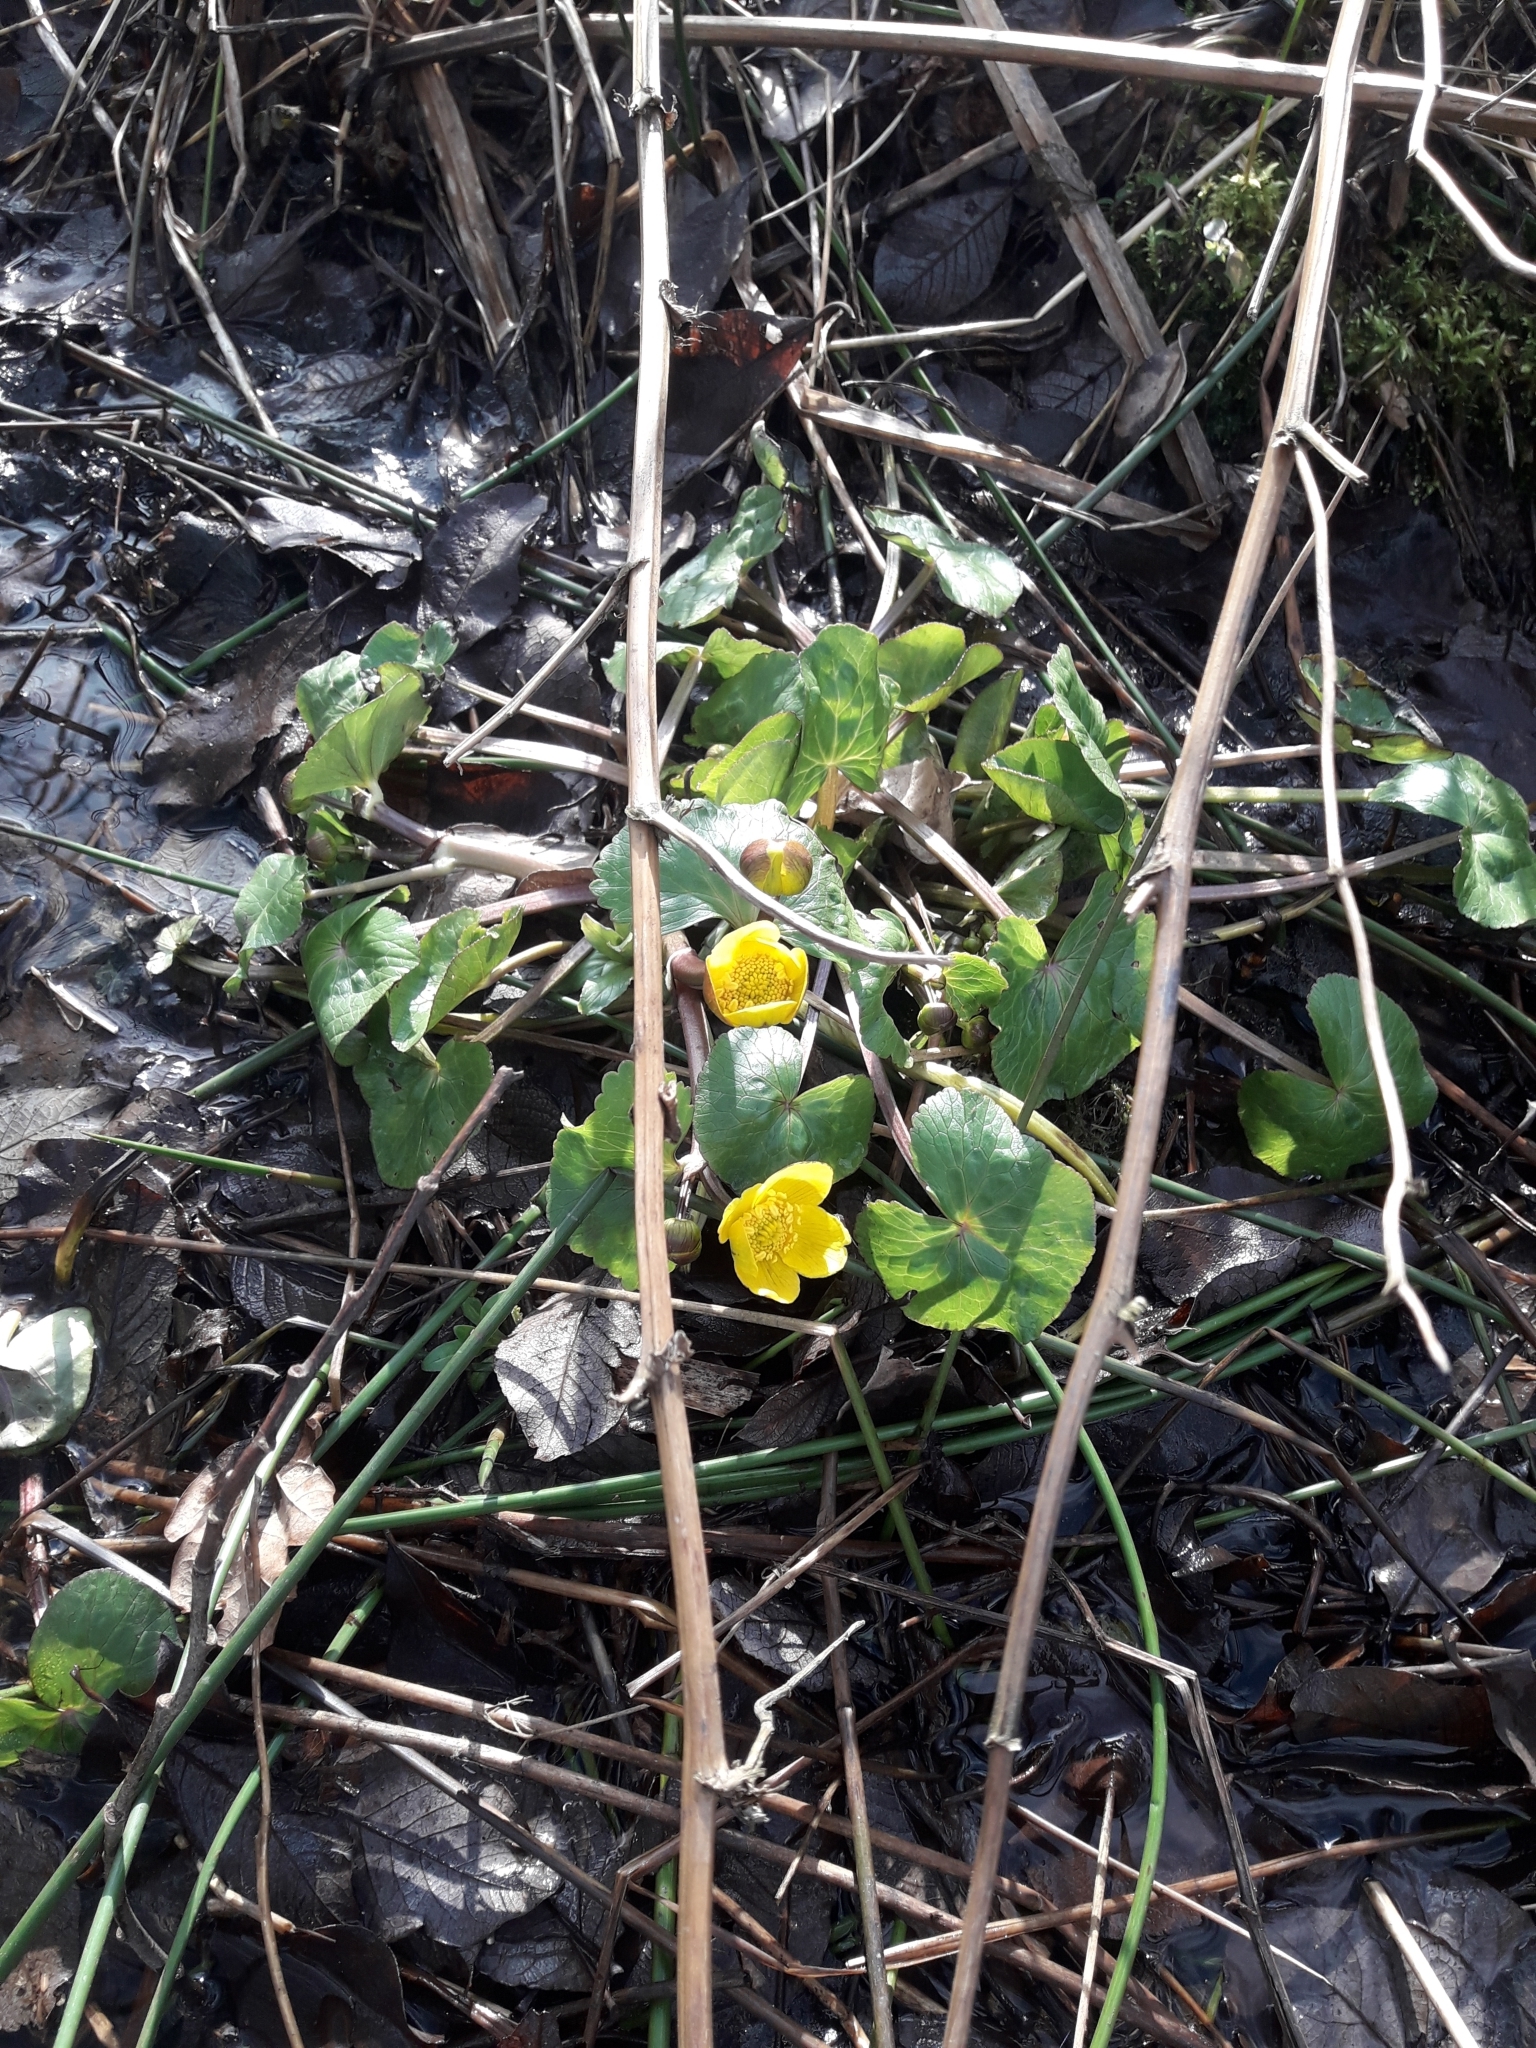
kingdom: Plantae
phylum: Tracheophyta
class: Magnoliopsida
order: Ranunculales
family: Ranunculaceae
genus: Caltha
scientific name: Caltha palustris
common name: Marsh marigold
